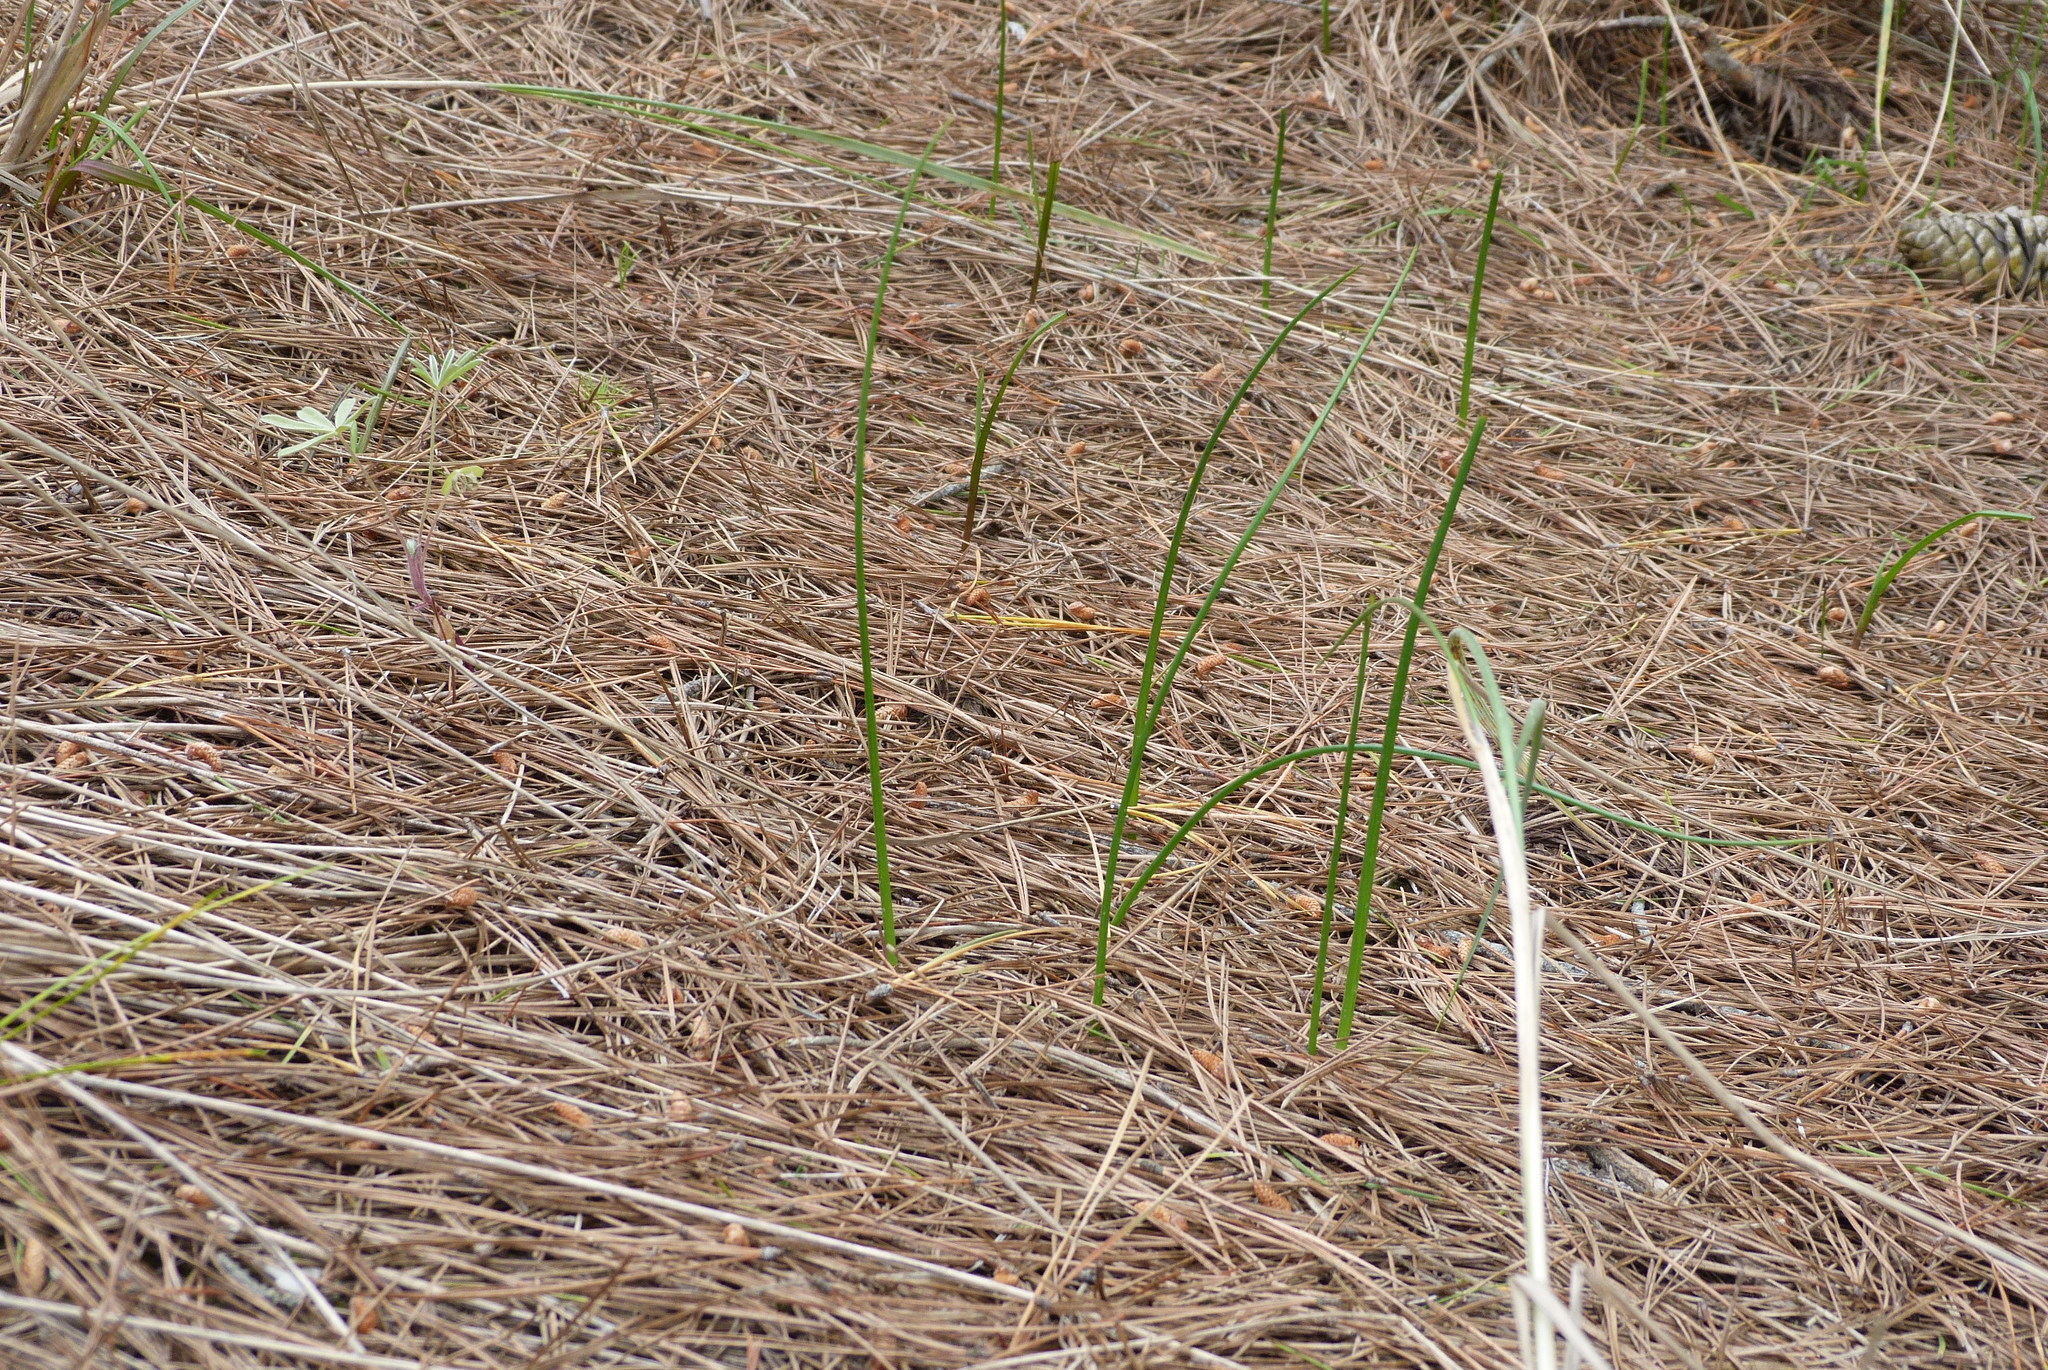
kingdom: Plantae
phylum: Tracheophyta
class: Liliopsida
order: Asparagales
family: Orchidaceae
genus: Microtis
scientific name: Microtis unifolia
